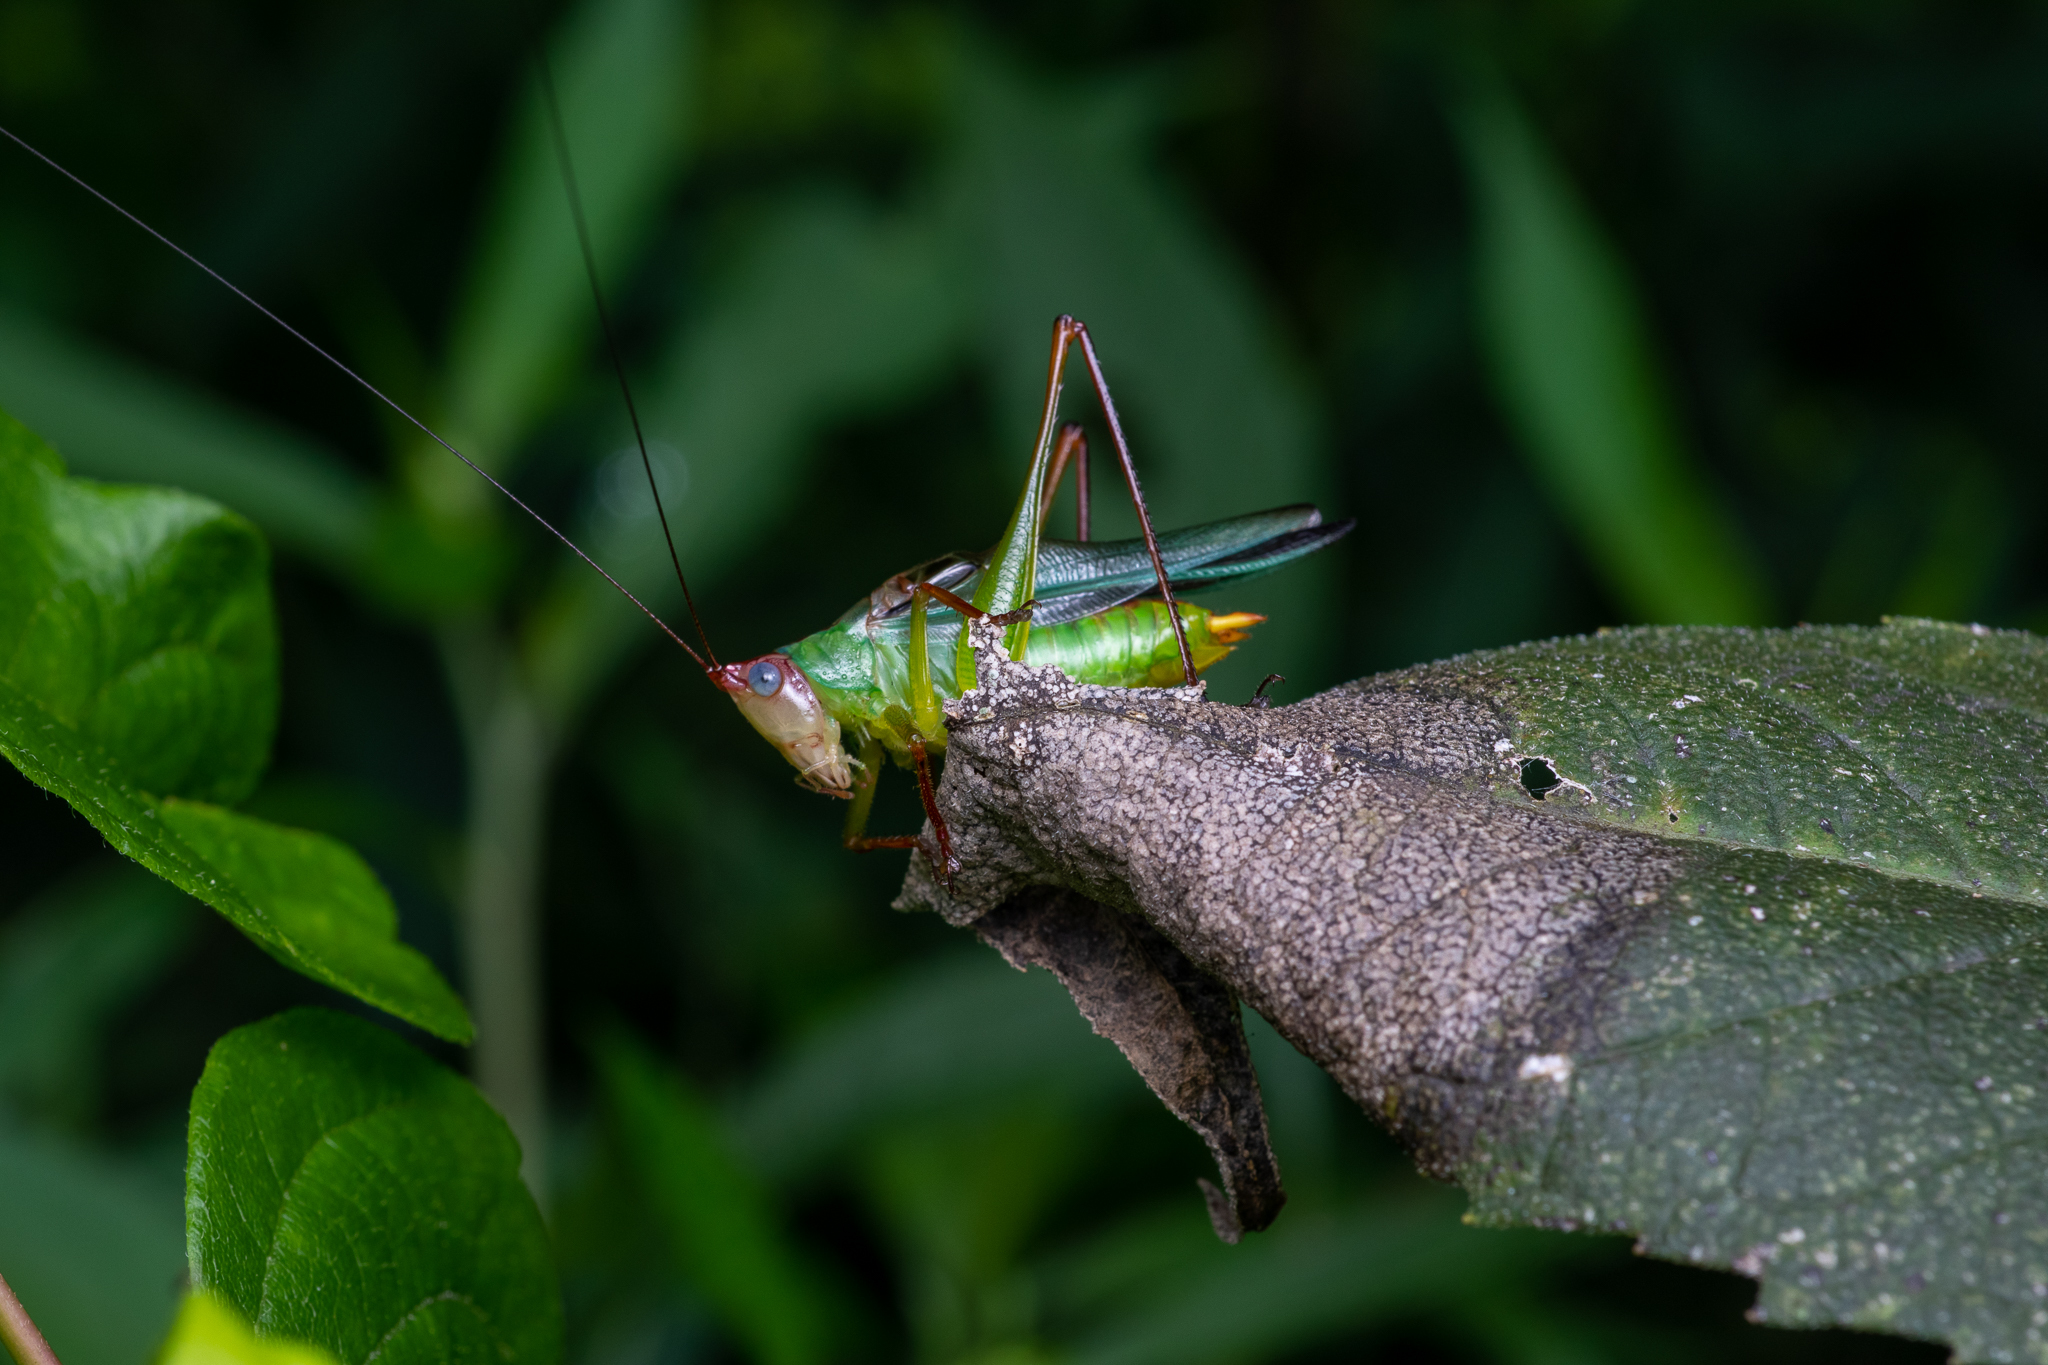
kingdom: Animalia
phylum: Arthropoda
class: Insecta
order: Orthoptera
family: Tettigoniidae
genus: Orchelimum
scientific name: Orchelimum pulchellum
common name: Handsome meadow katydid
